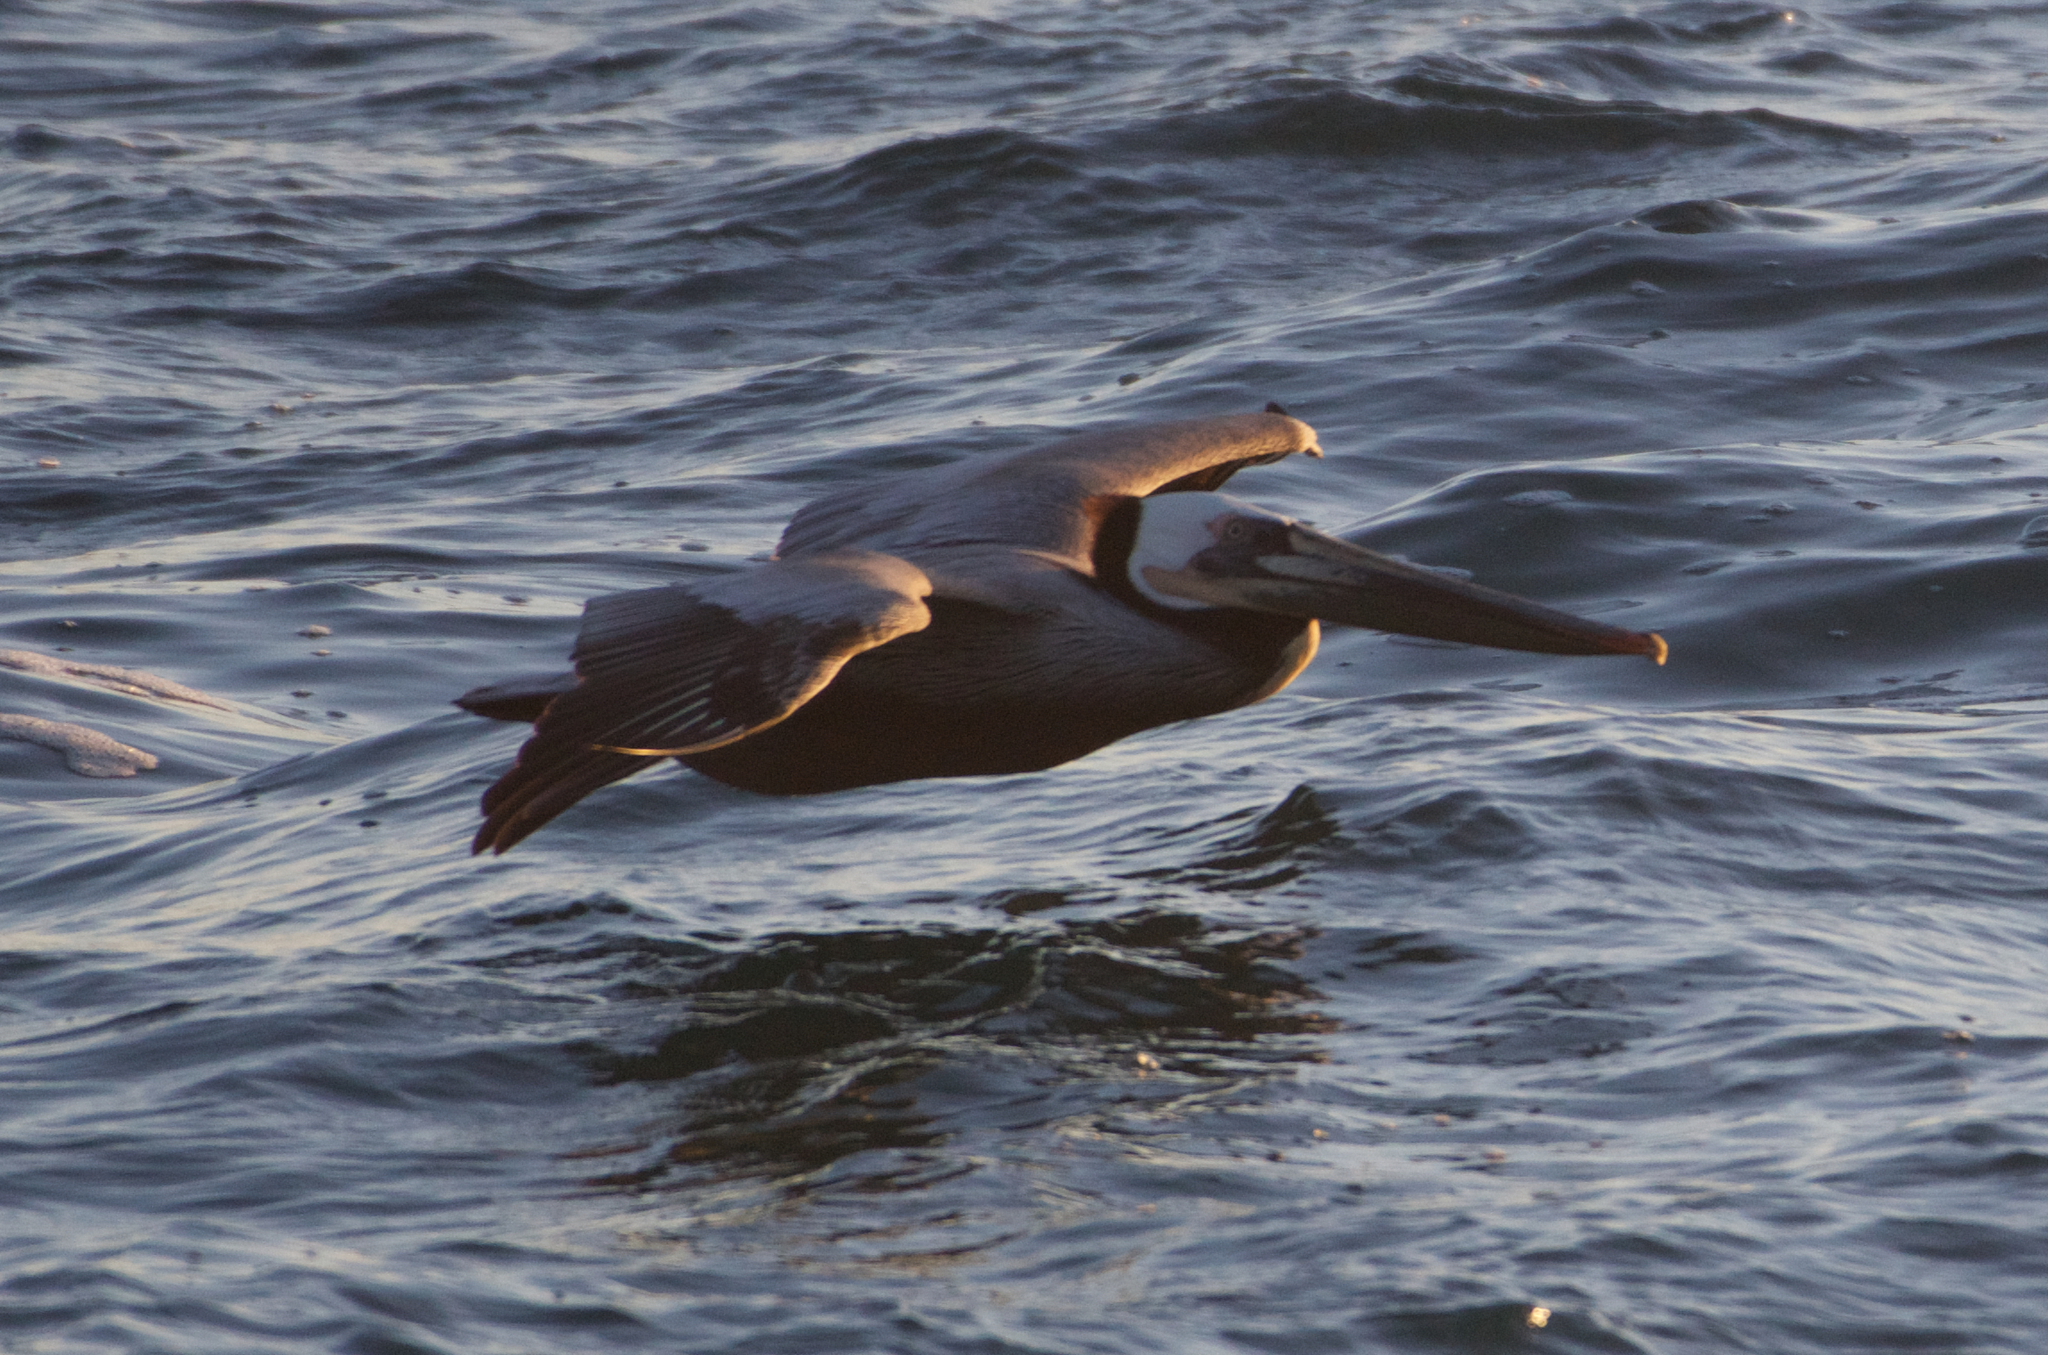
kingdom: Animalia
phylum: Chordata
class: Aves
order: Pelecaniformes
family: Pelecanidae
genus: Pelecanus
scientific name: Pelecanus occidentalis
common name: Brown pelican
